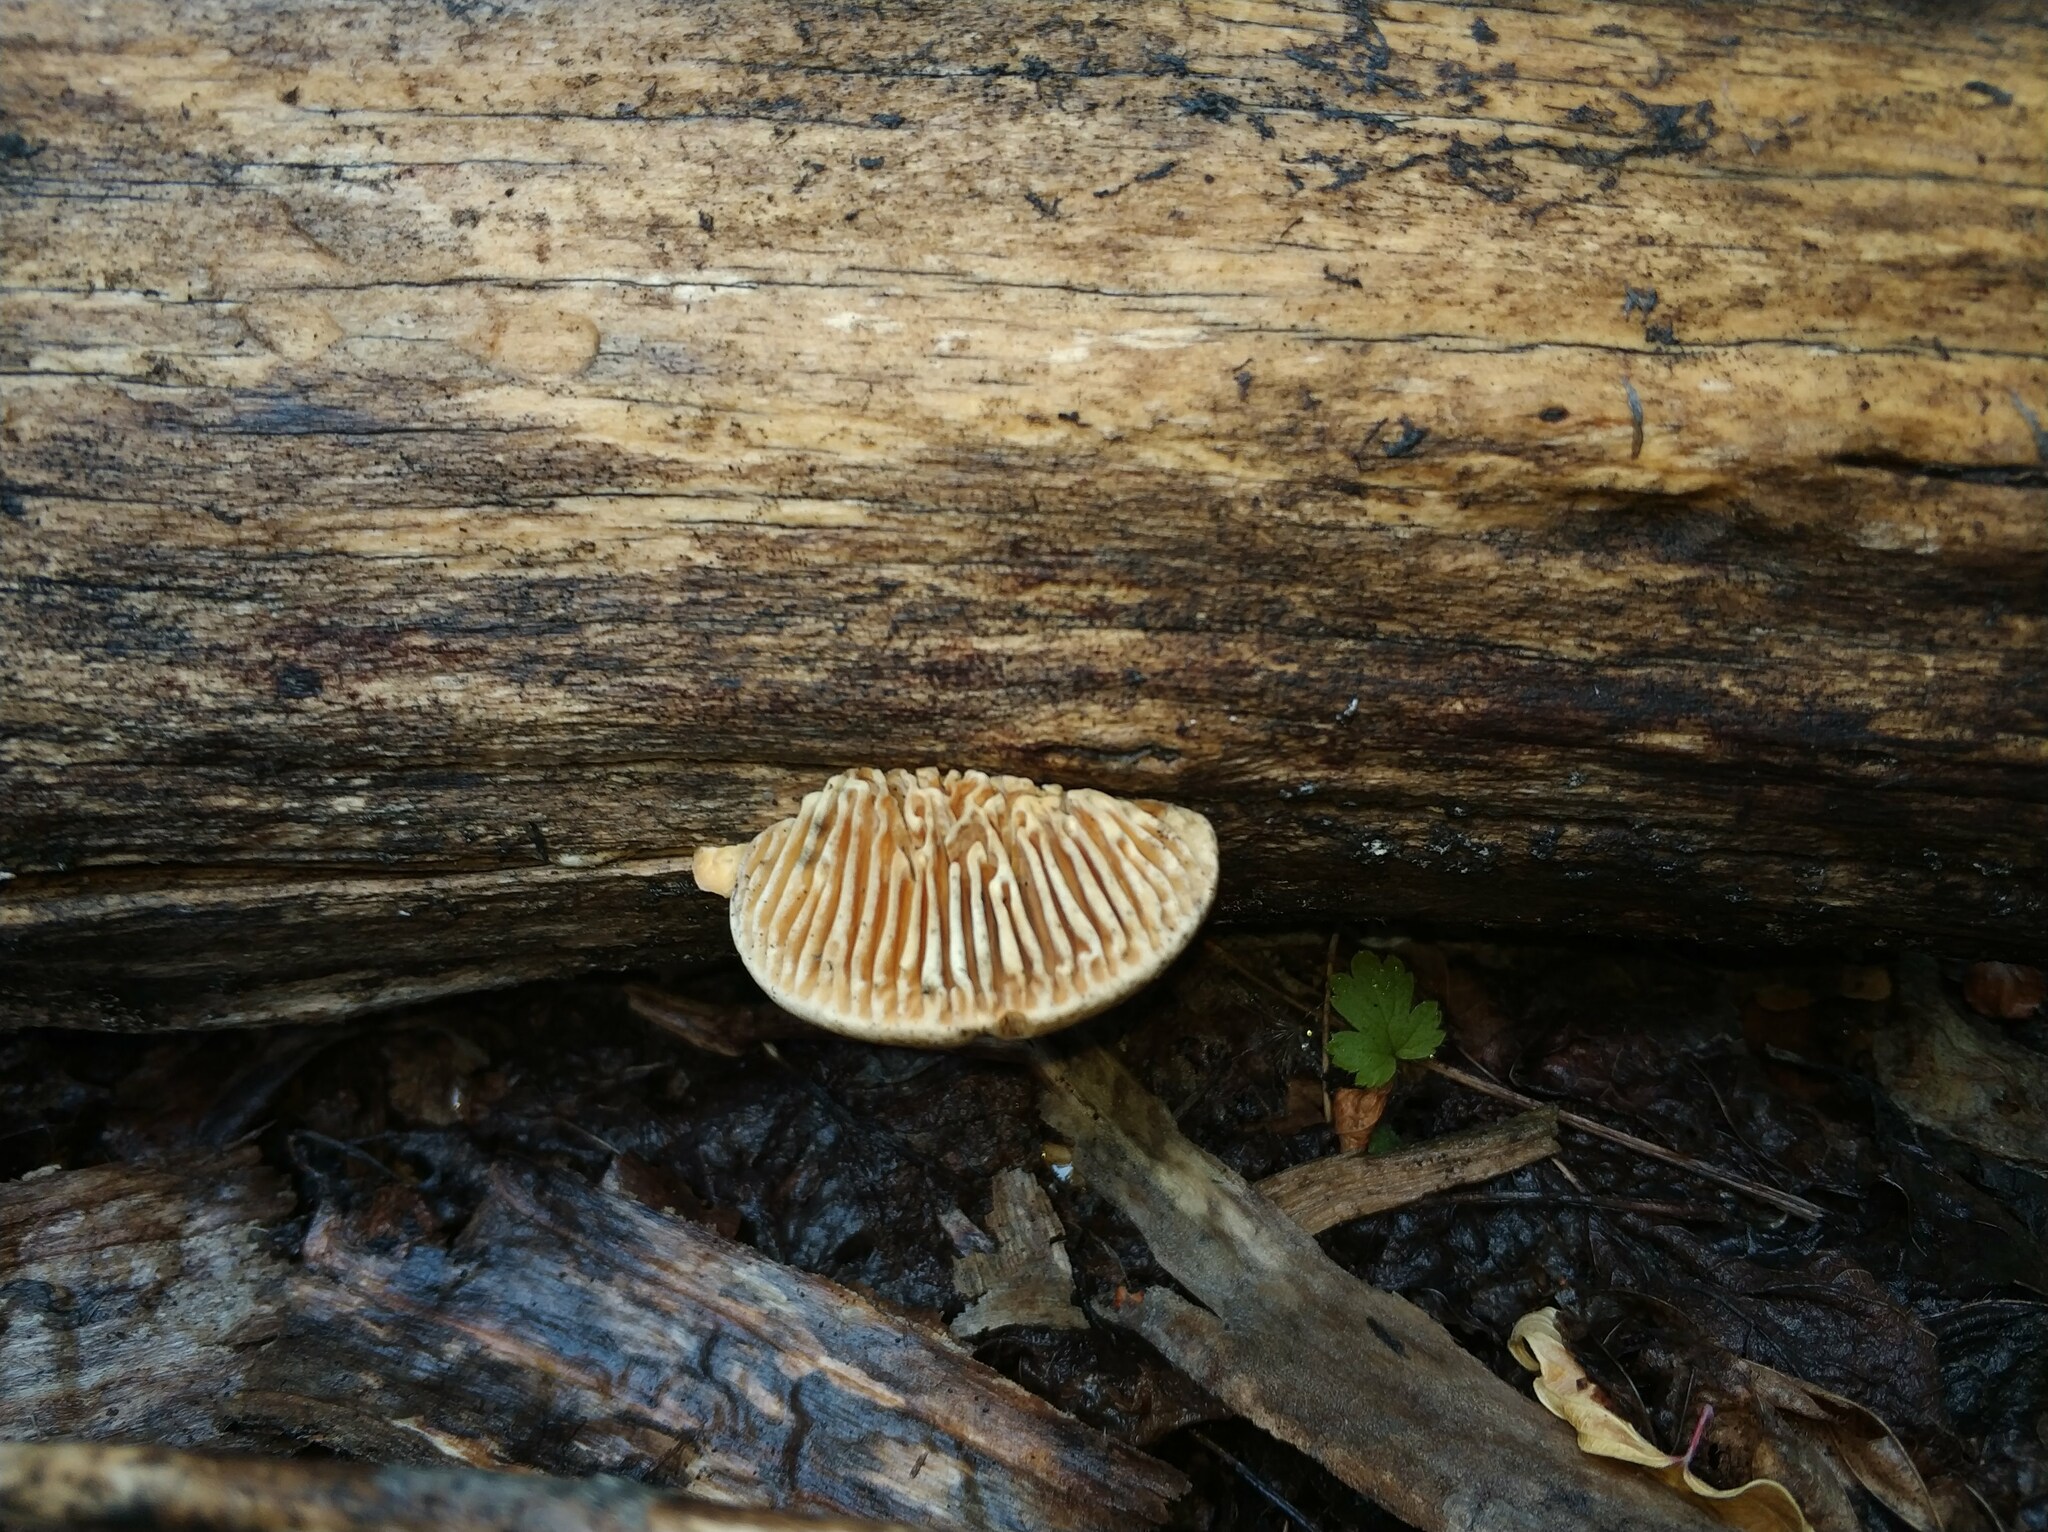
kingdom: Fungi
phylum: Basidiomycota
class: Agaricomycetes
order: Polyporales
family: Fomitopsidaceae
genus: Fomitopsis
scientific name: Fomitopsis
